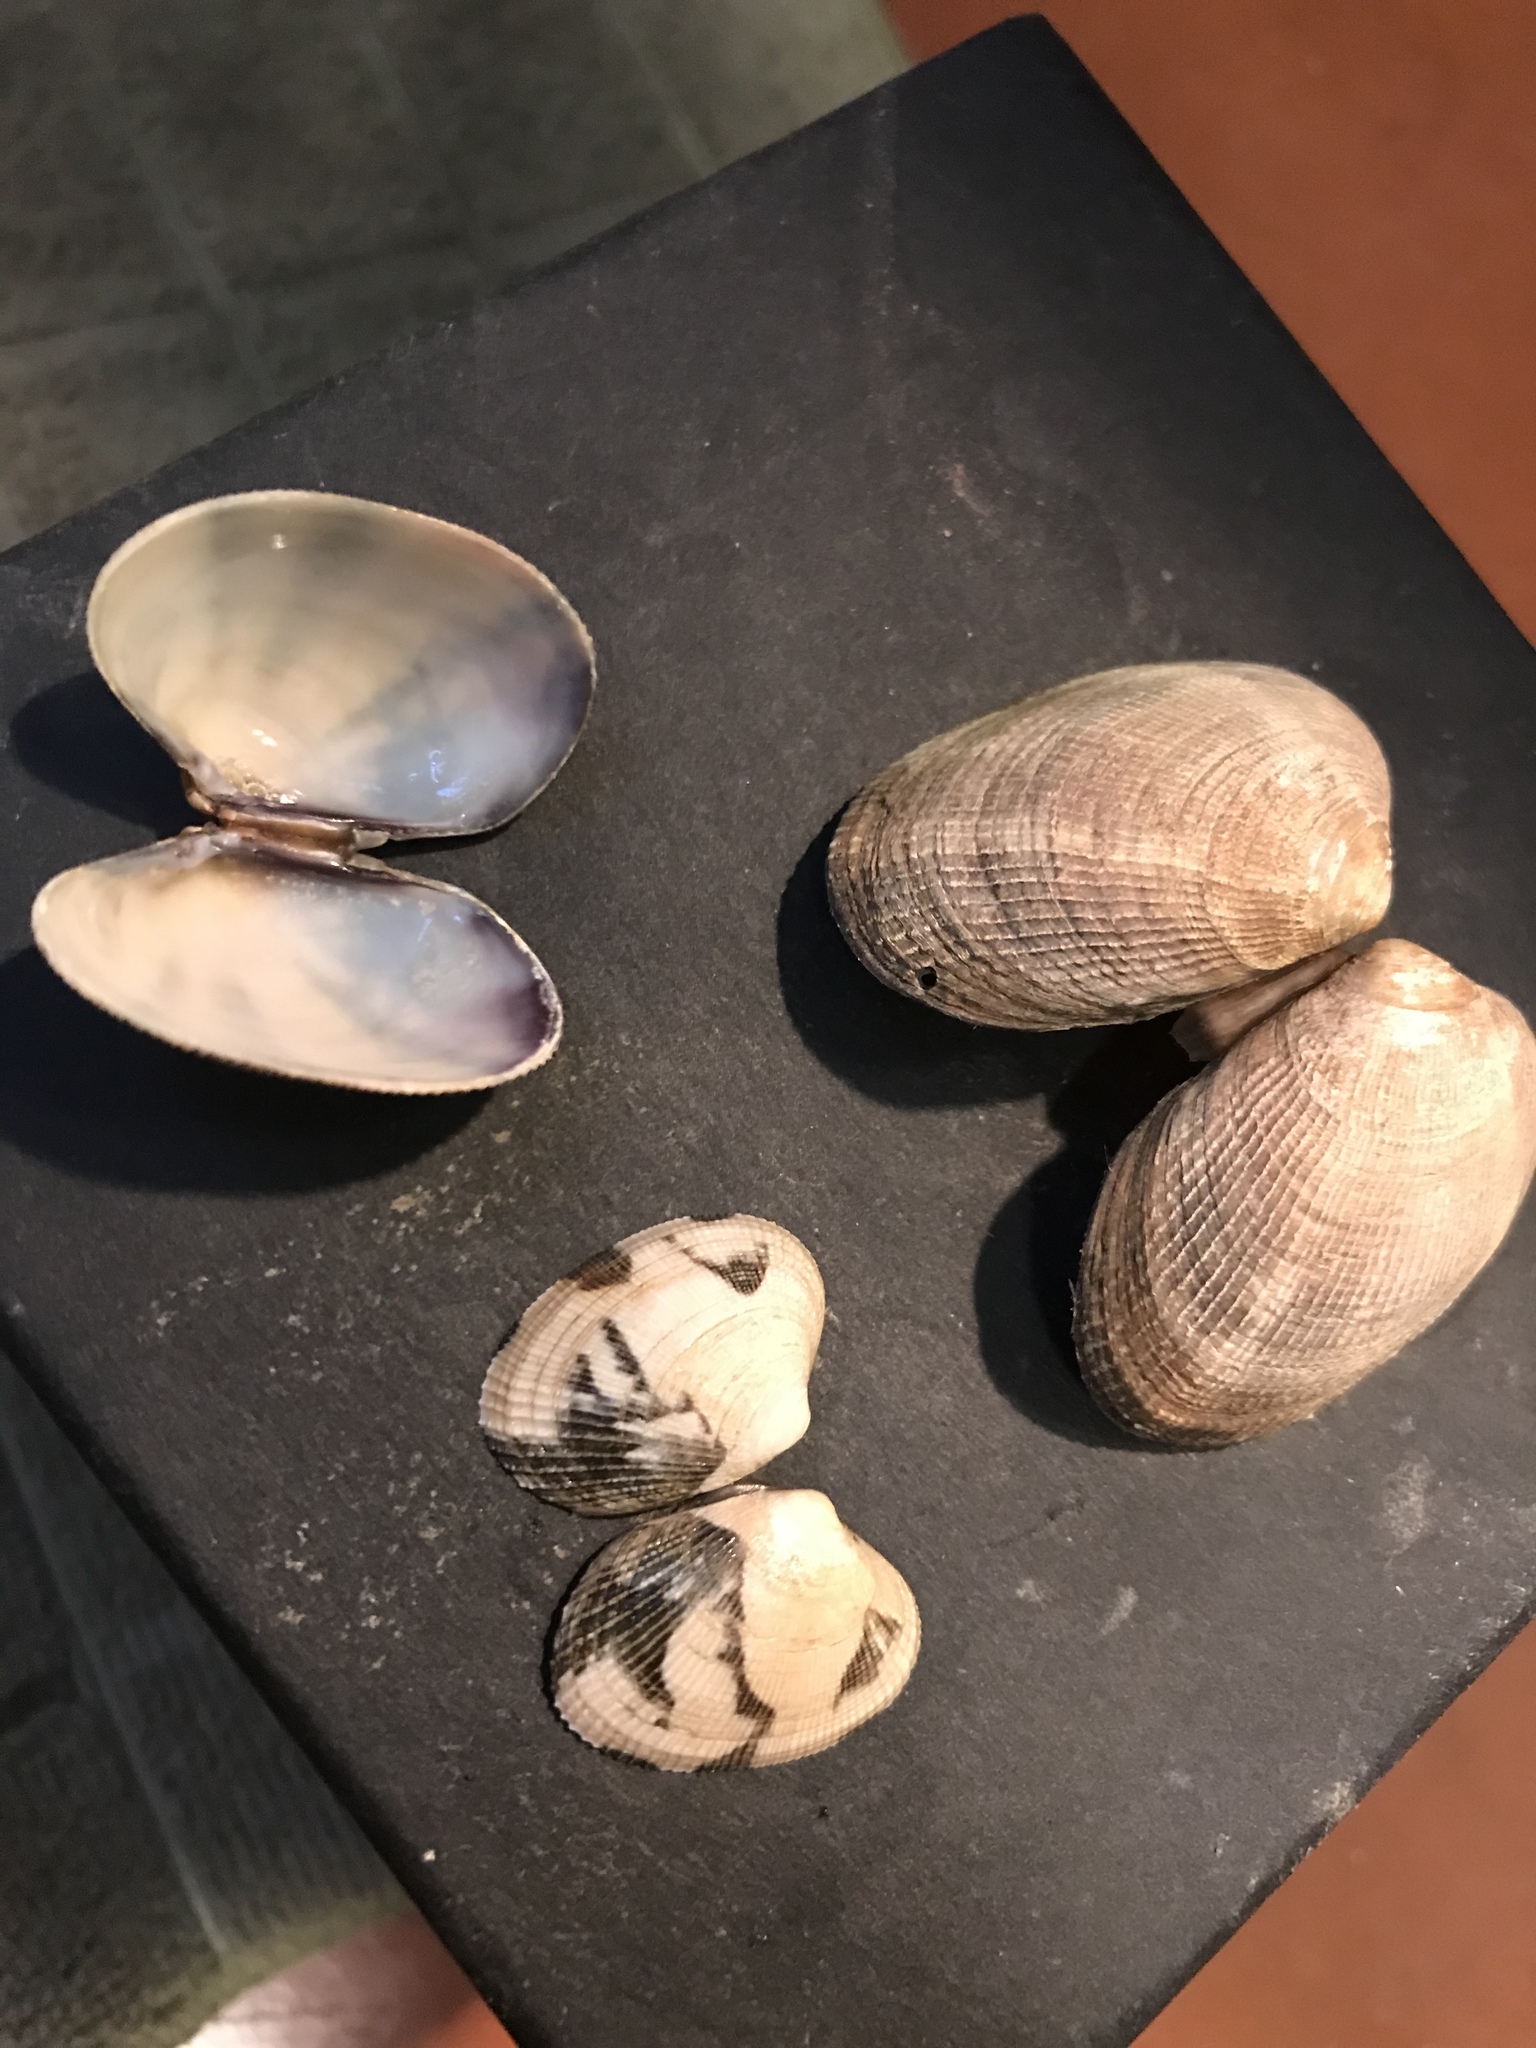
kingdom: Animalia
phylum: Mollusca
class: Bivalvia
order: Venerida
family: Veneridae
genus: Ruditapes
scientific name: Ruditapes philippinarum
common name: Manila clam
